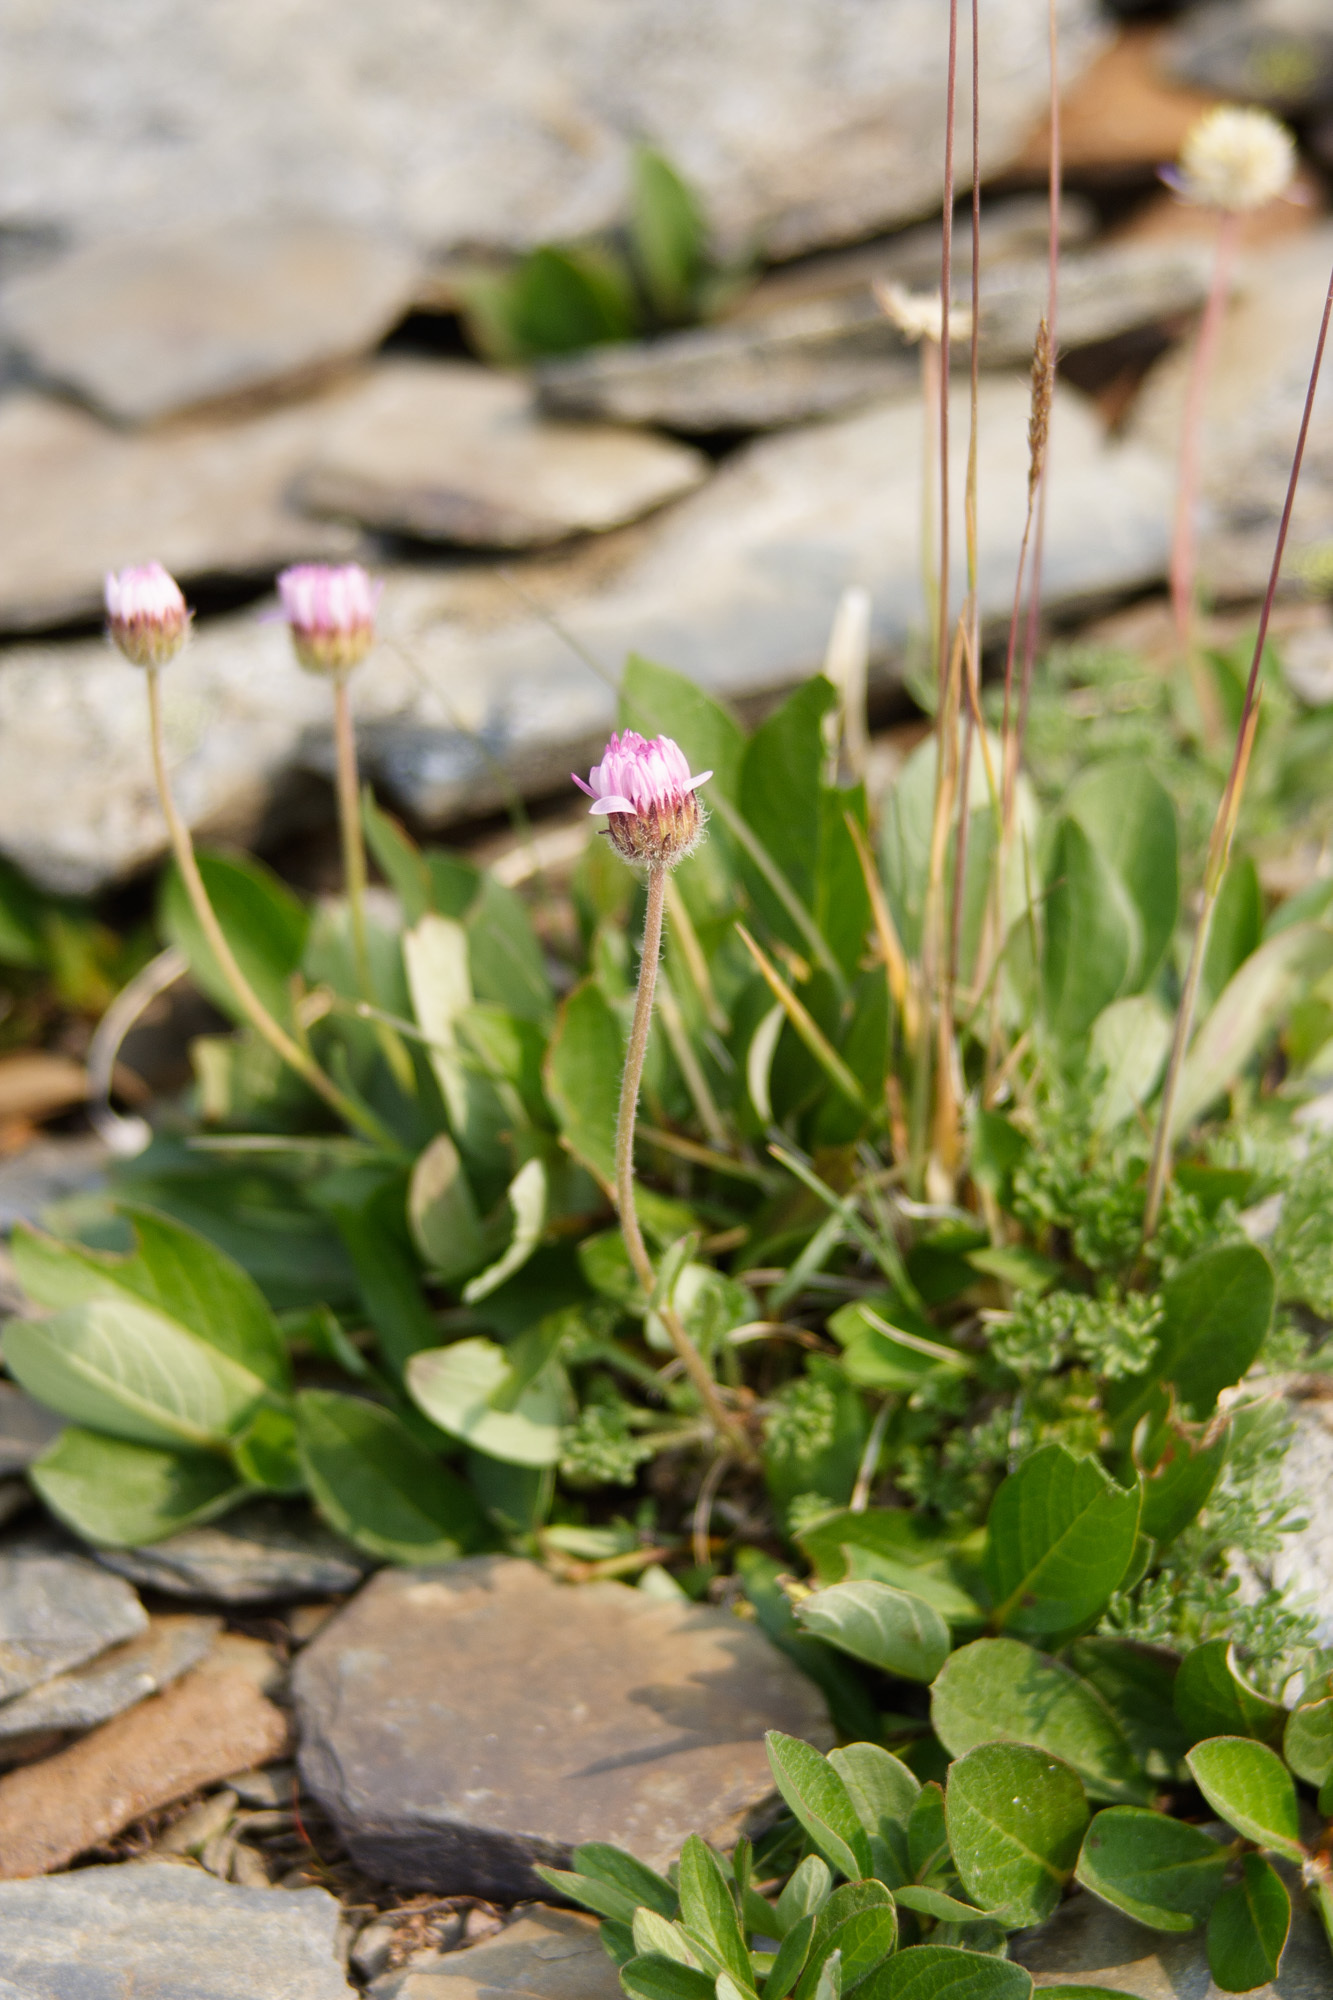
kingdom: Plantae
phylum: Tracheophyta
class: Magnoliopsida
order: Asterales
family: Asteraceae
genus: Erigeron
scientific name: Erigeron compositus
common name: Dwarf mountain fleabane
